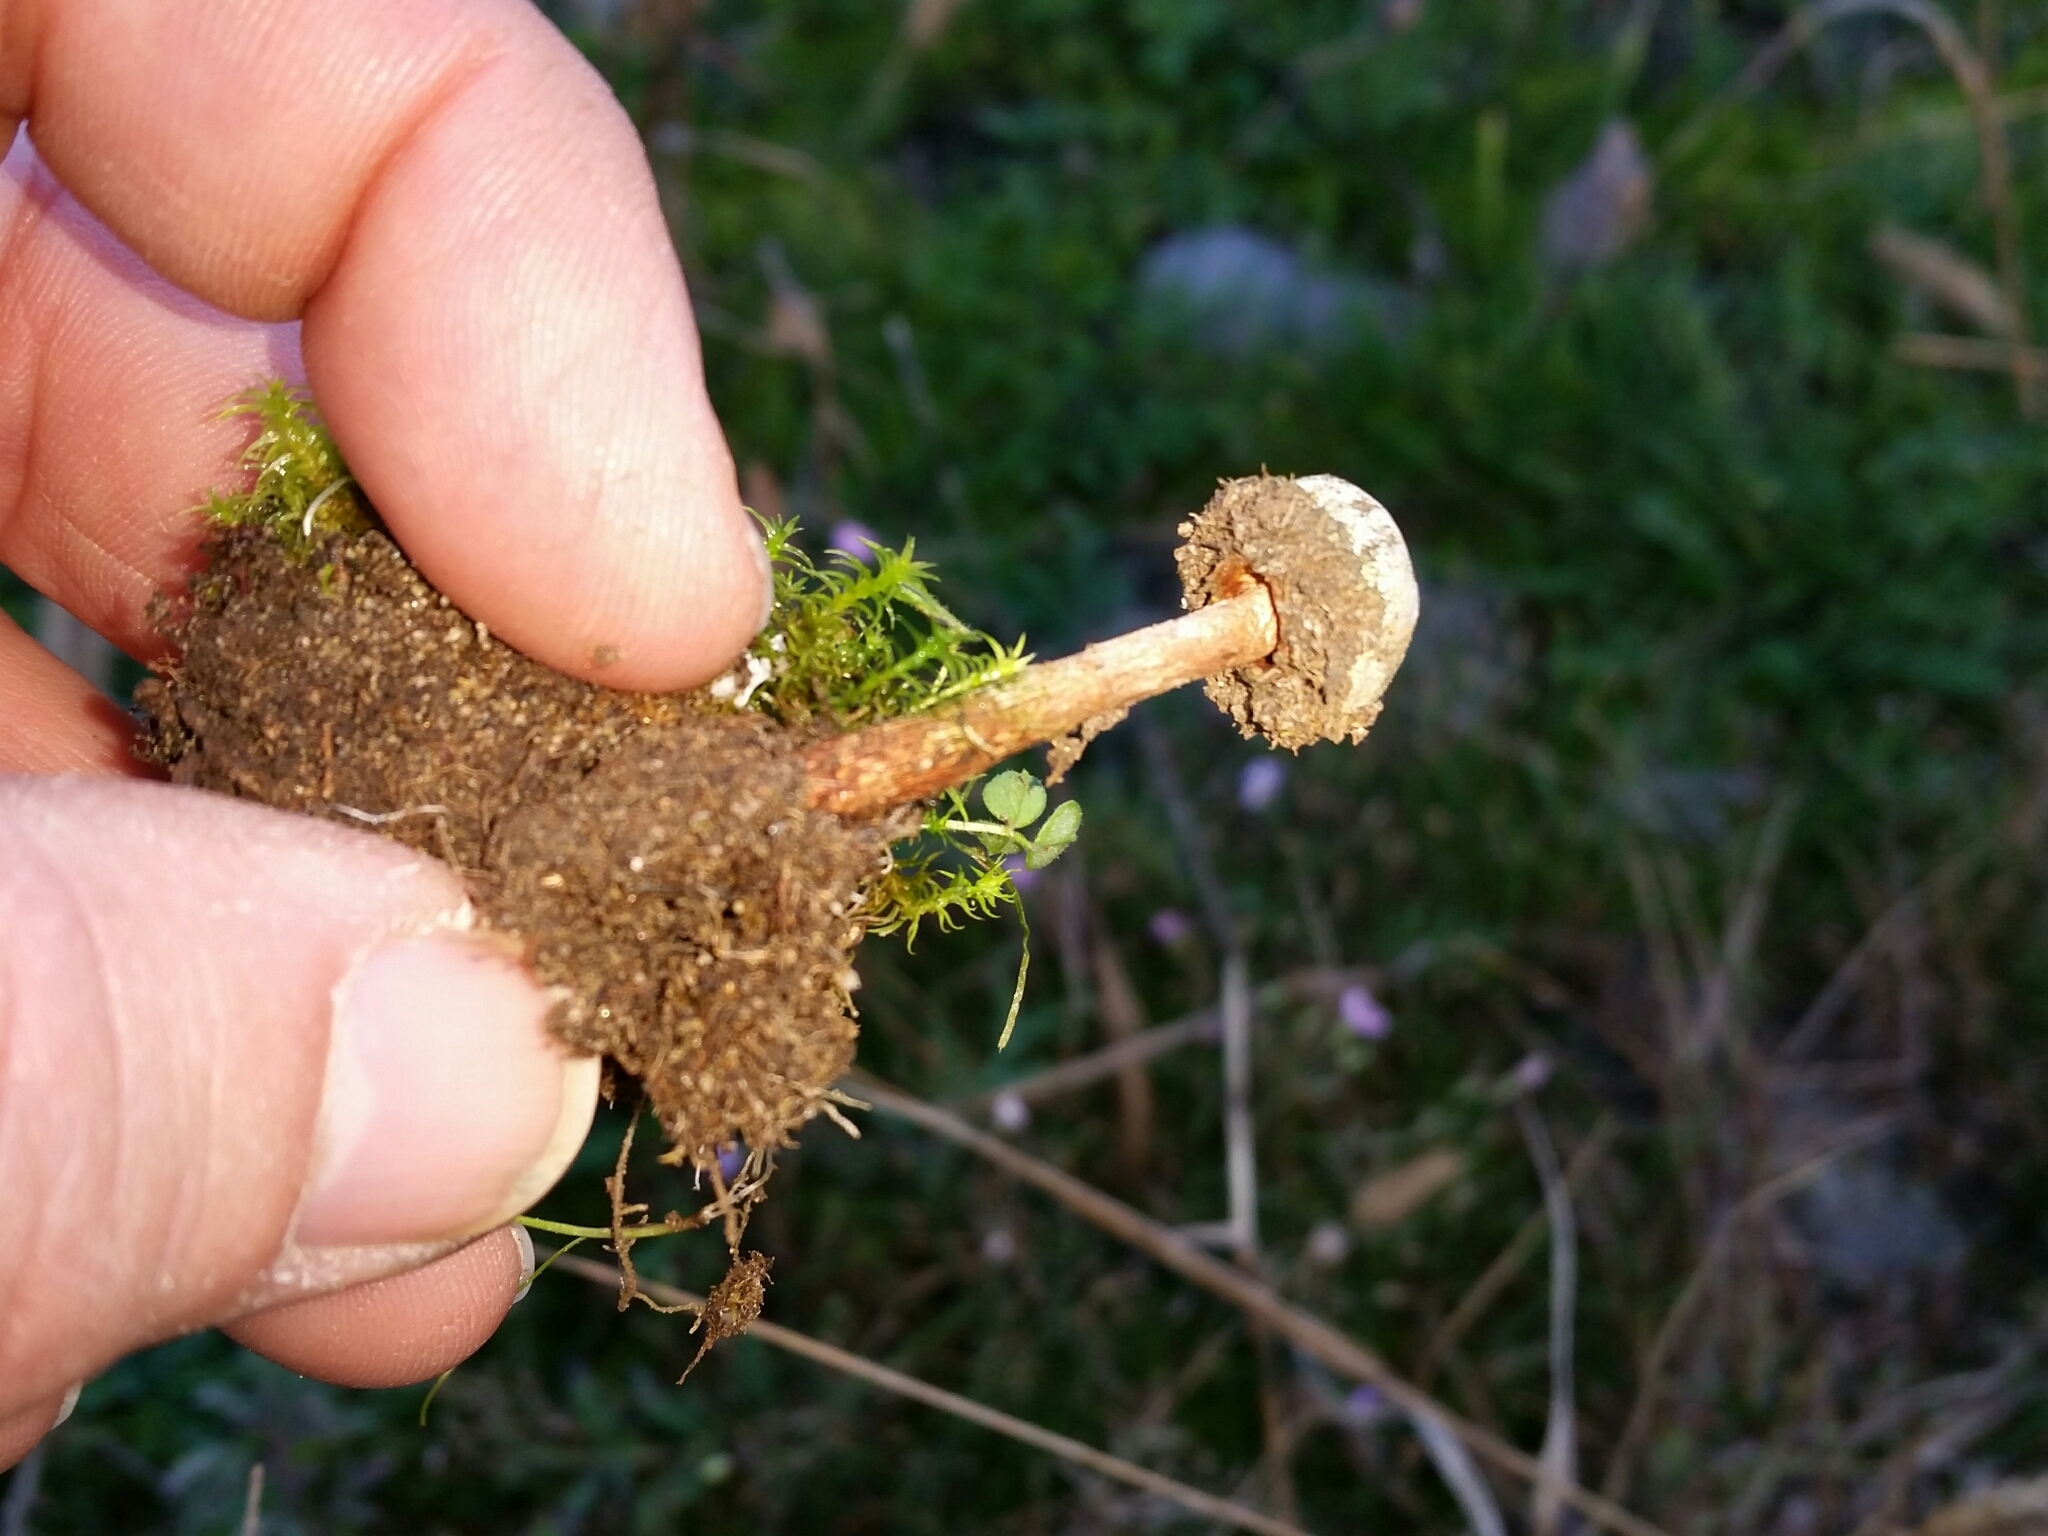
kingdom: Fungi
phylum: Basidiomycota
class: Agaricomycetes
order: Agaricales
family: Agaricaceae
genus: Tulostoma
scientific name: Tulostoma brumale
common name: Winter stalk puffball
